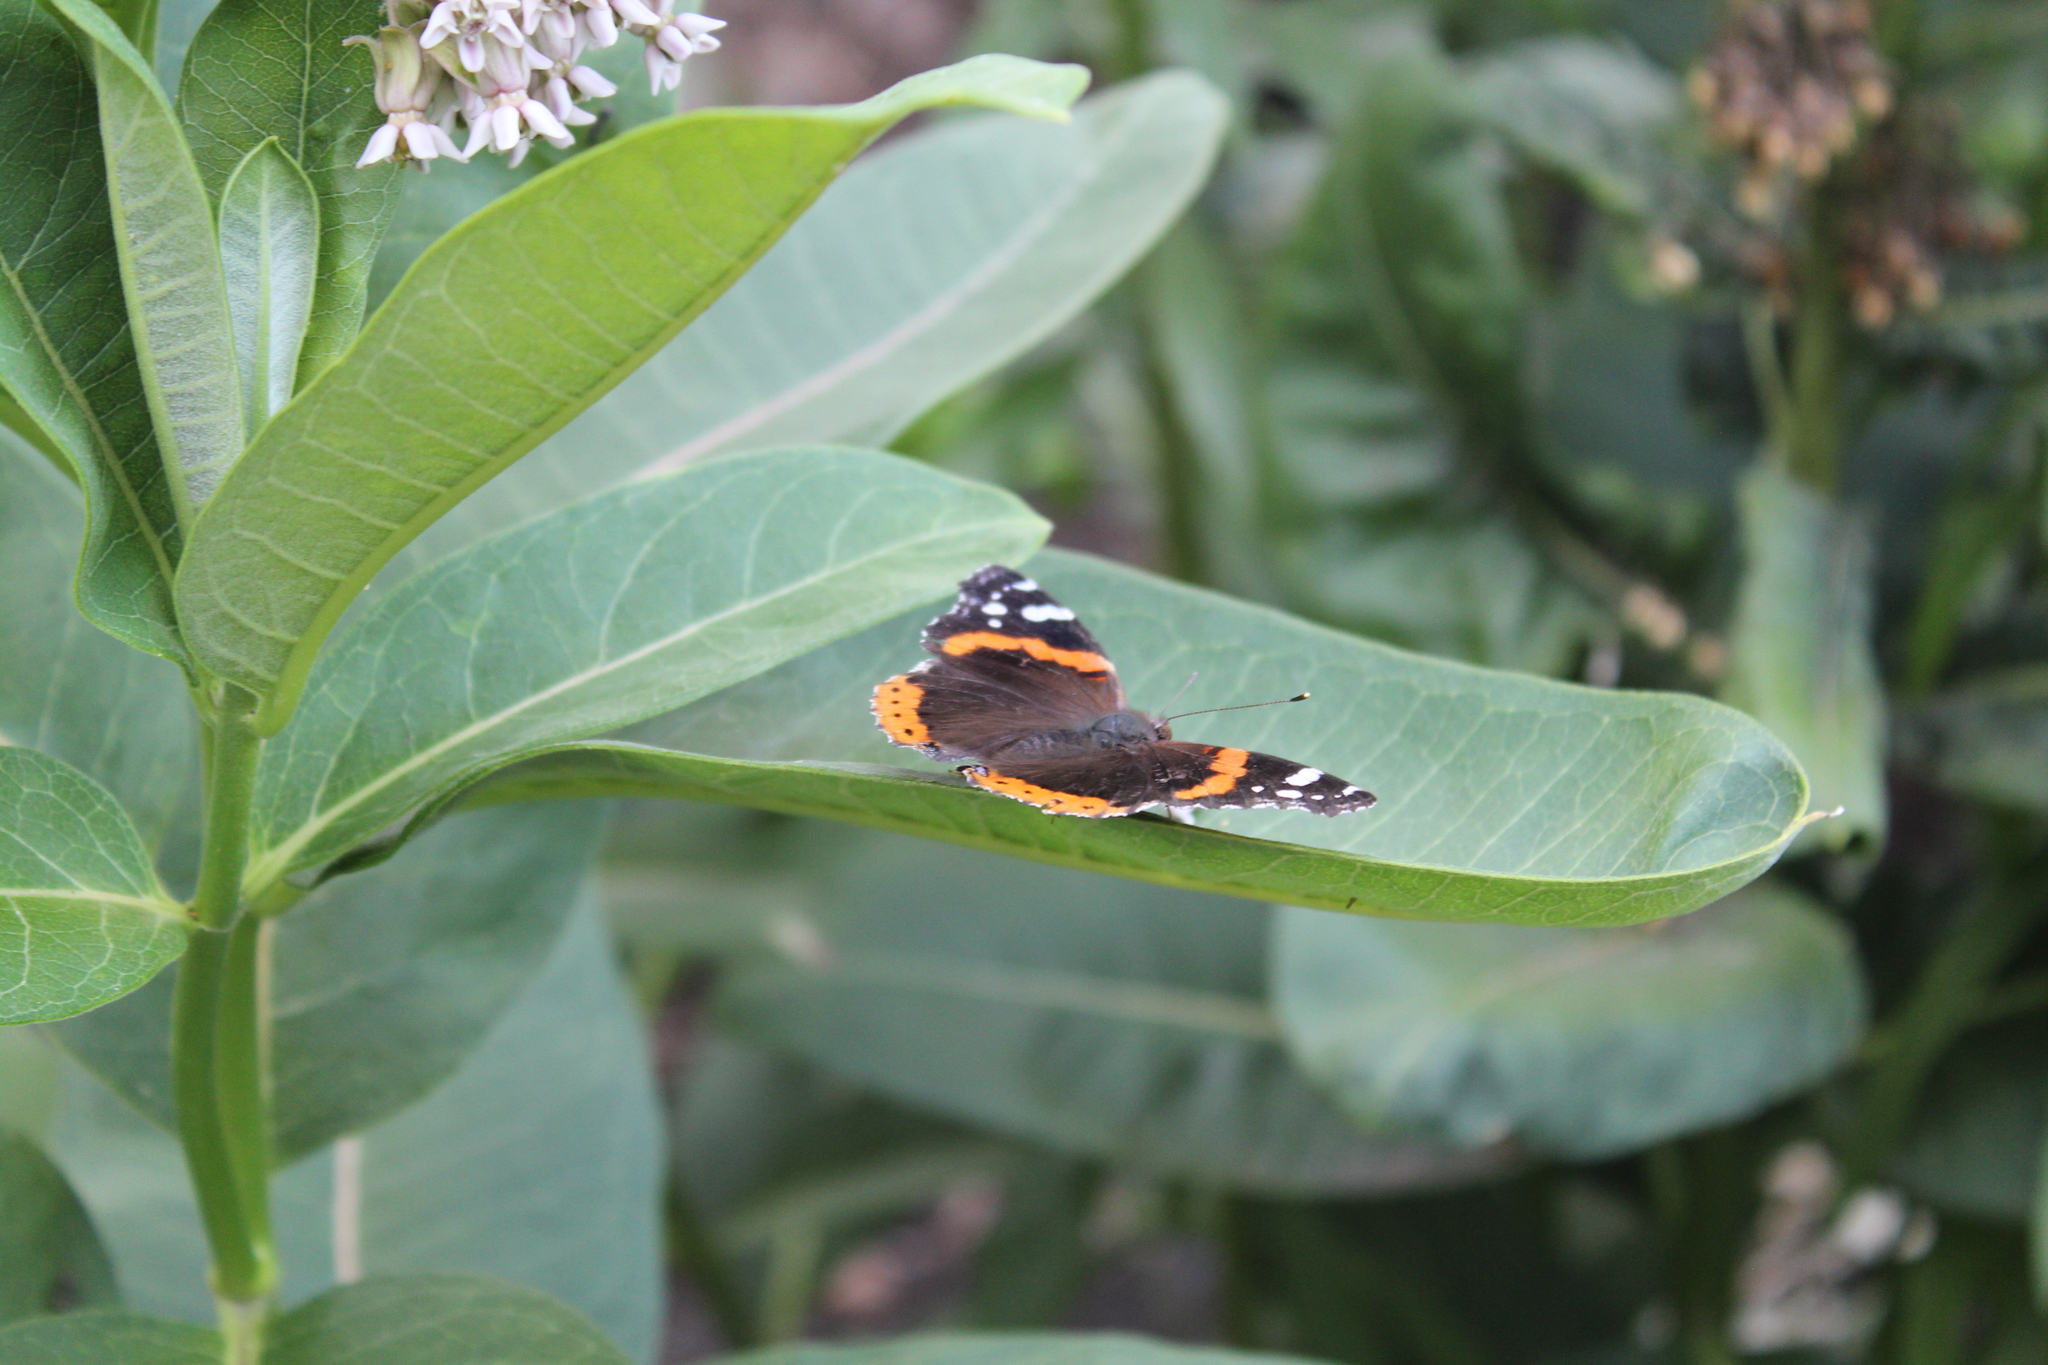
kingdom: Animalia
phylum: Arthropoda
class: Insecta
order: Lepidoptera
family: Nymphalidae
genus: Vanessa
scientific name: Vanessa atalanta
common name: Red admiral
